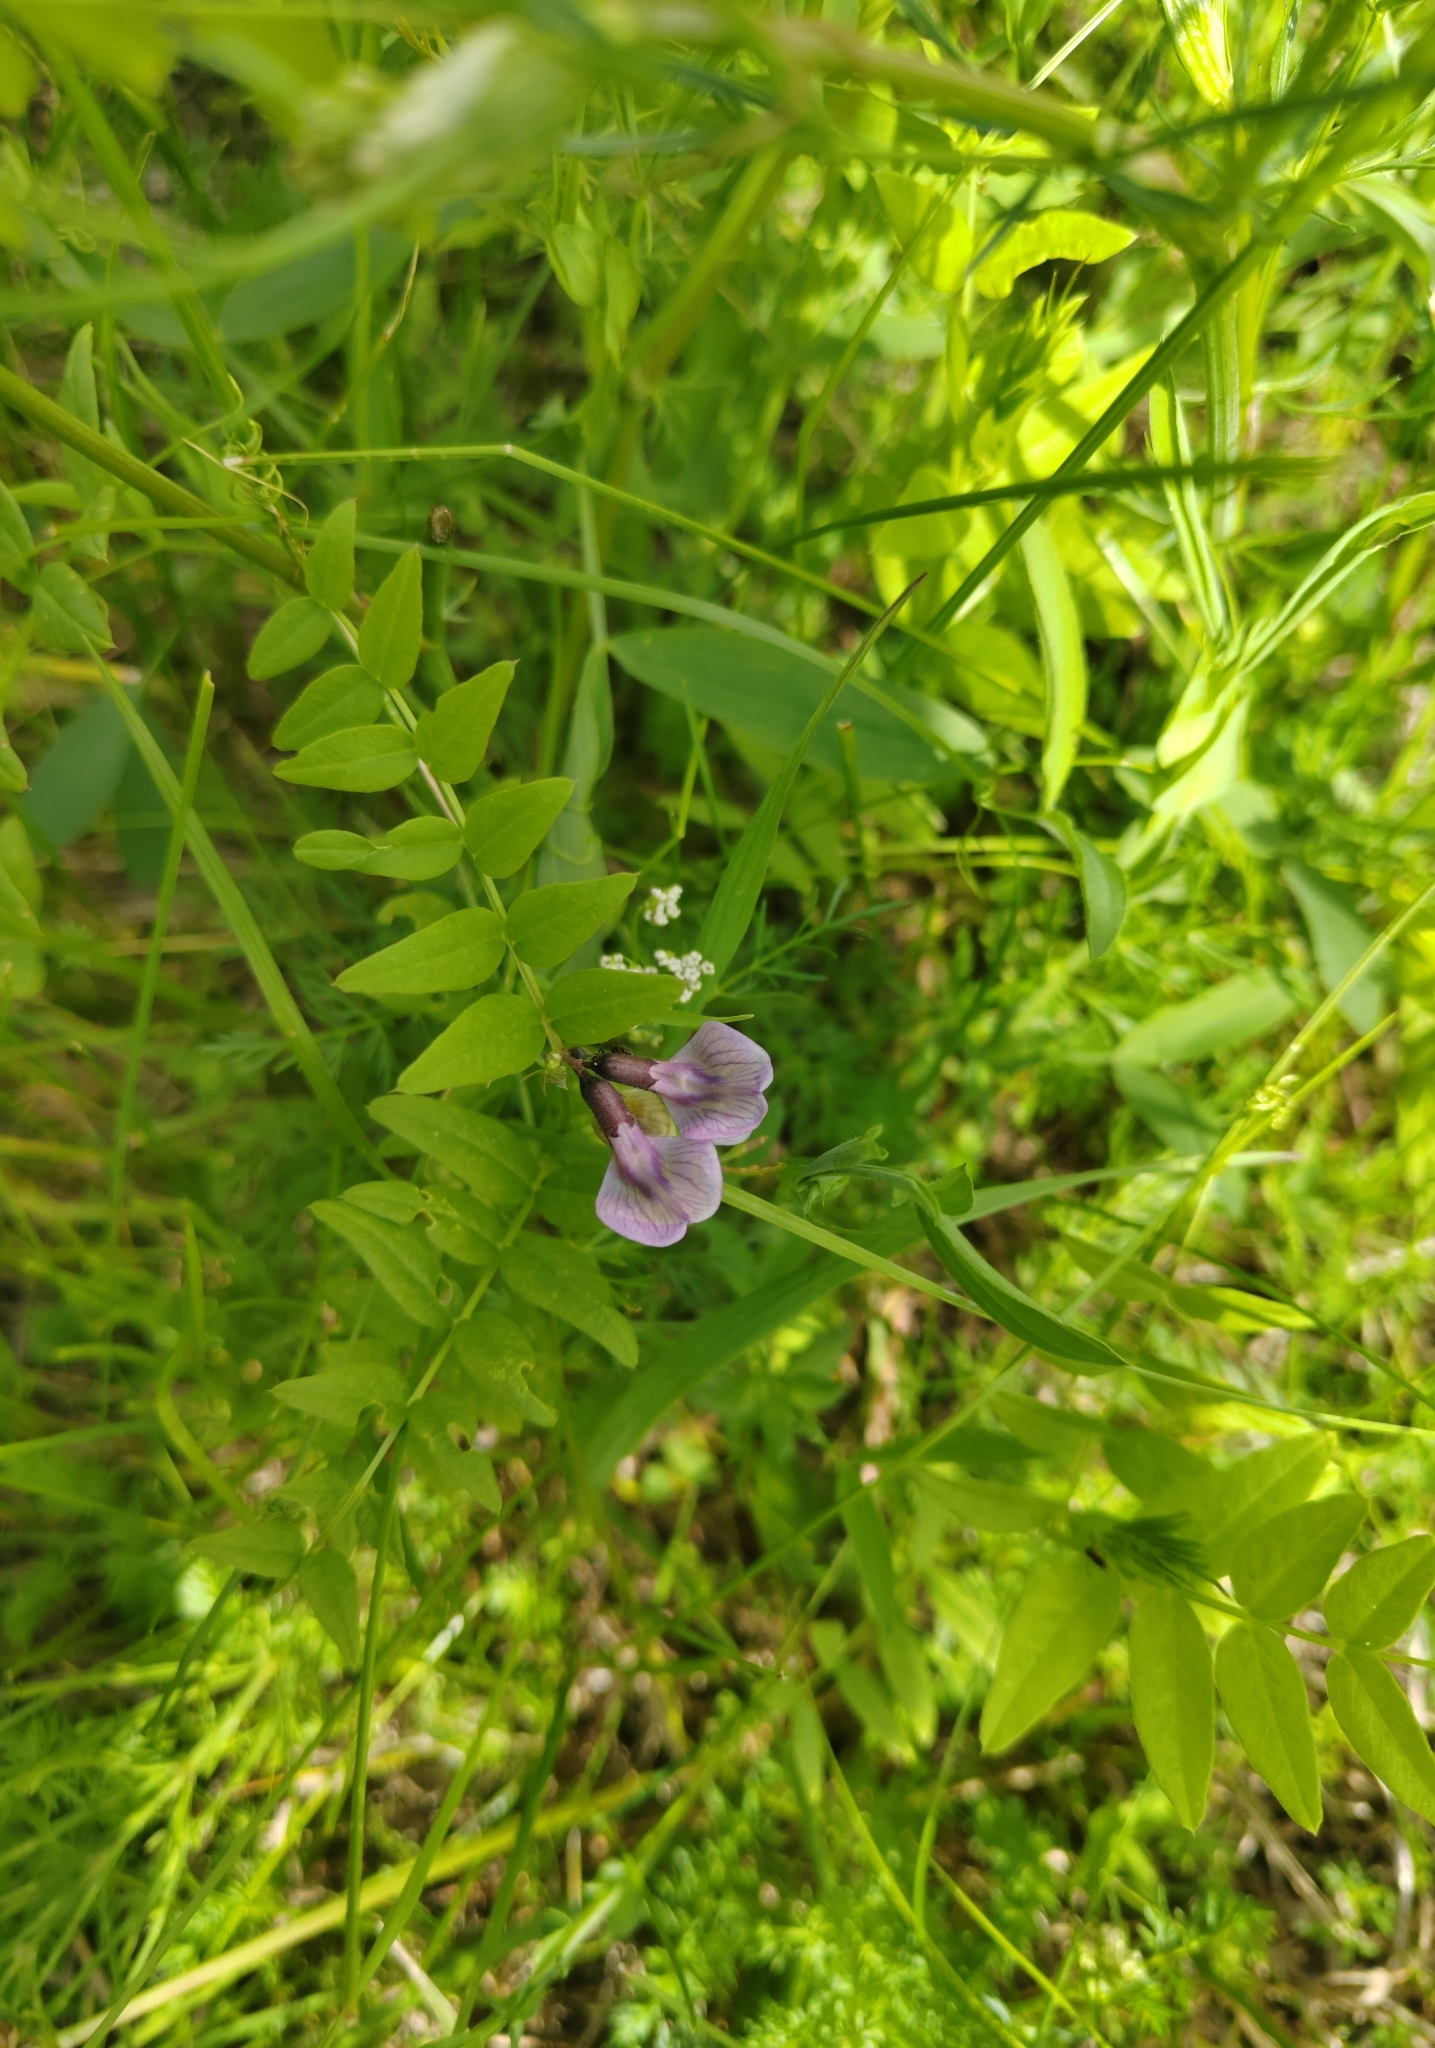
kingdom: Plantae
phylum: Tracheophyta
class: Magnoliopsida
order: Fabales
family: Fabaceae
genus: Vicia
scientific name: Vicia sepium
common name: Bush vetch
